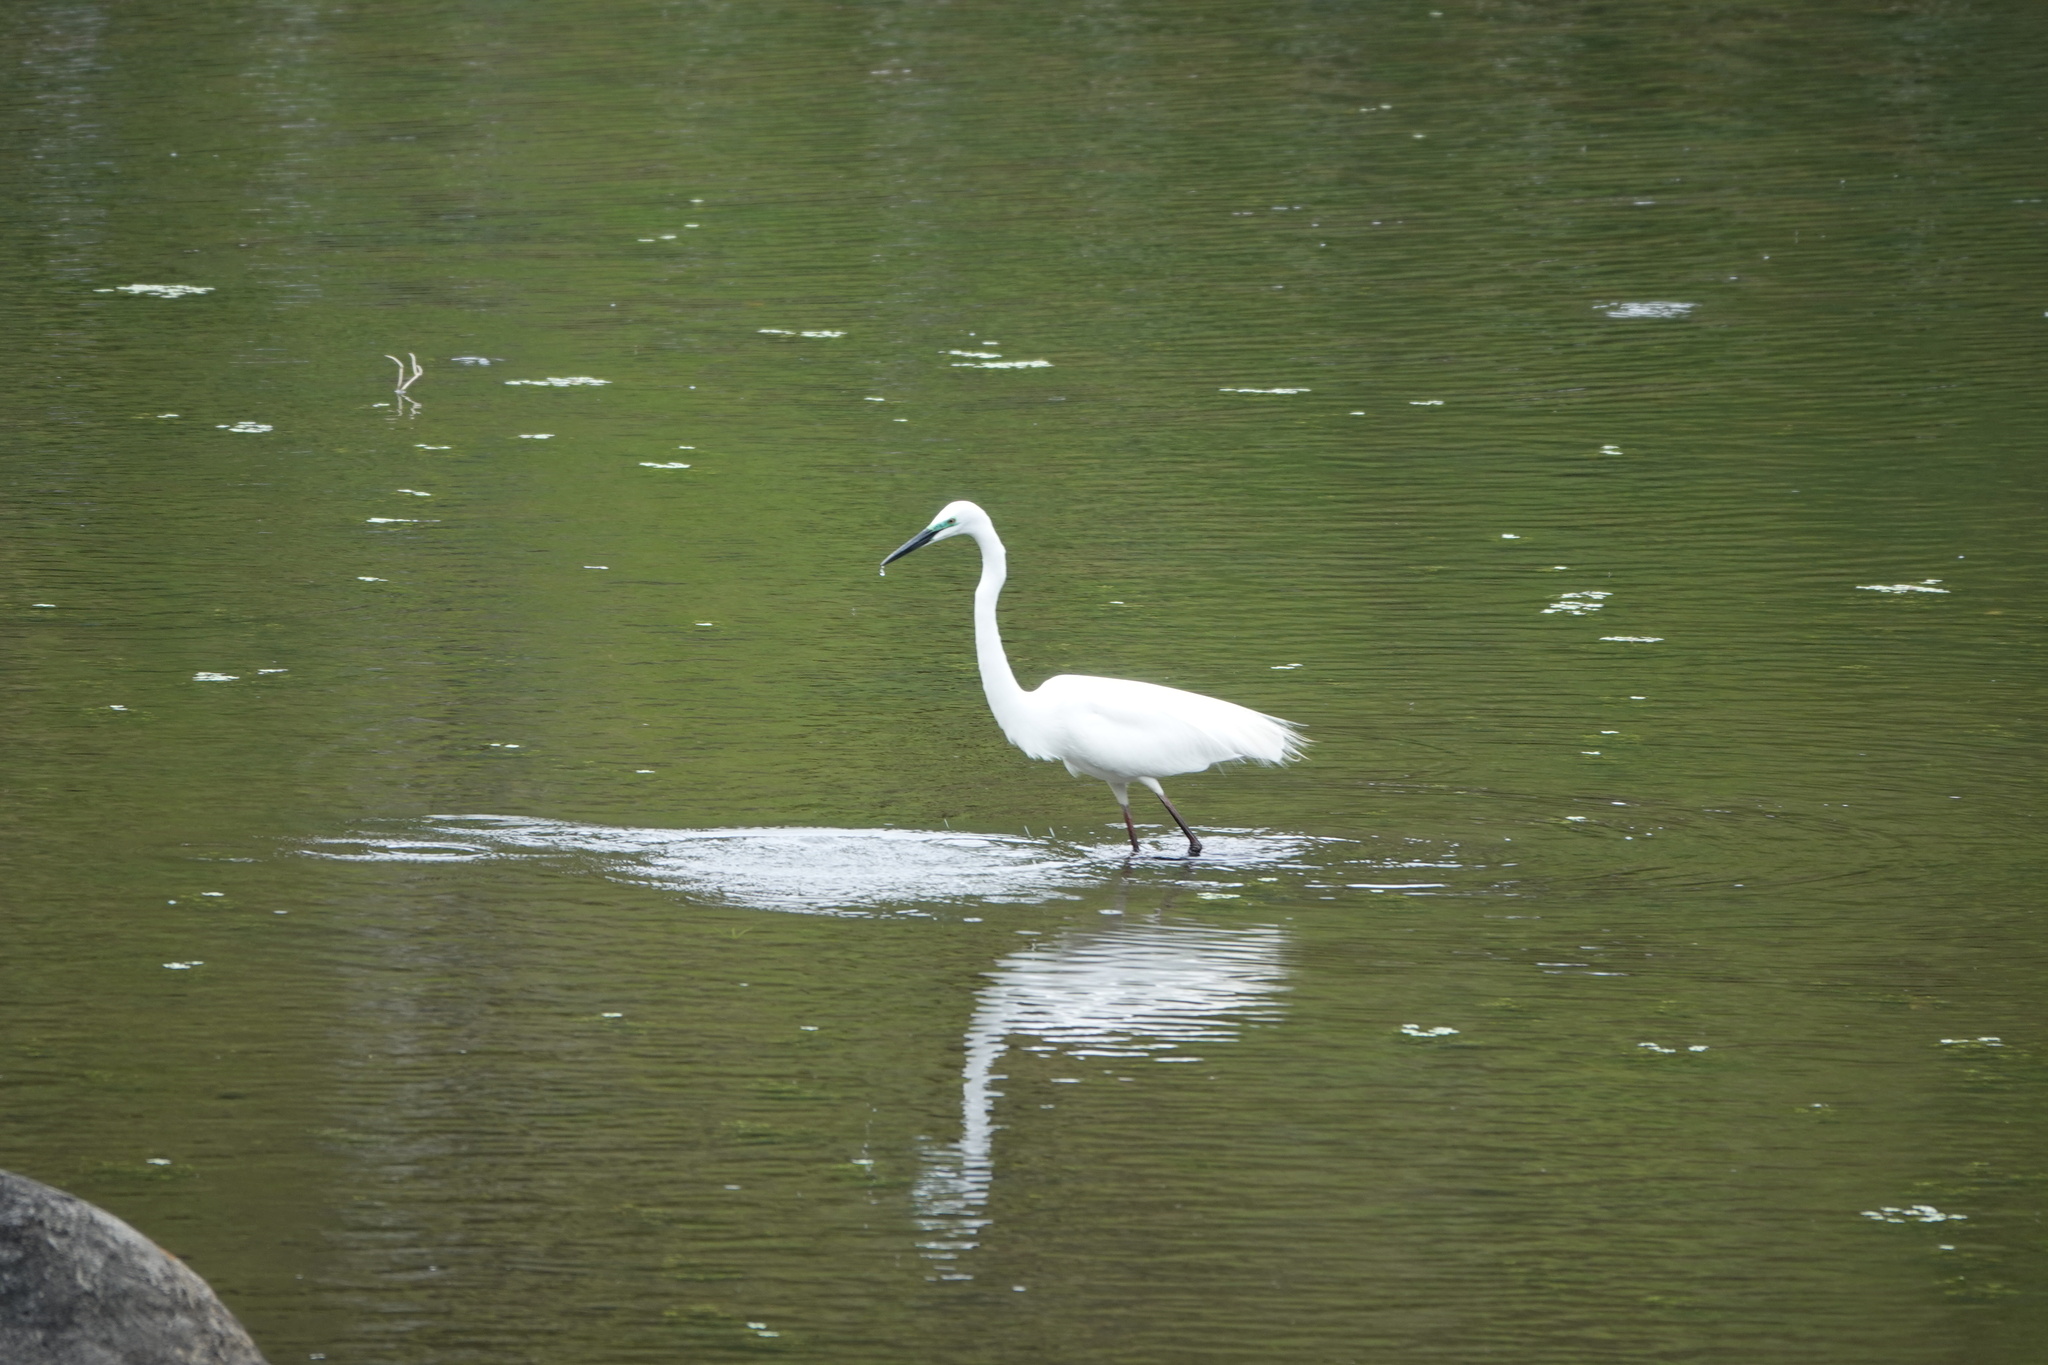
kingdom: Animalia
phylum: Chordata
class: Aves
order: Pelecaniformes
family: Ardeidae
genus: Ardea
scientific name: Ardea alba
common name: Great egret
